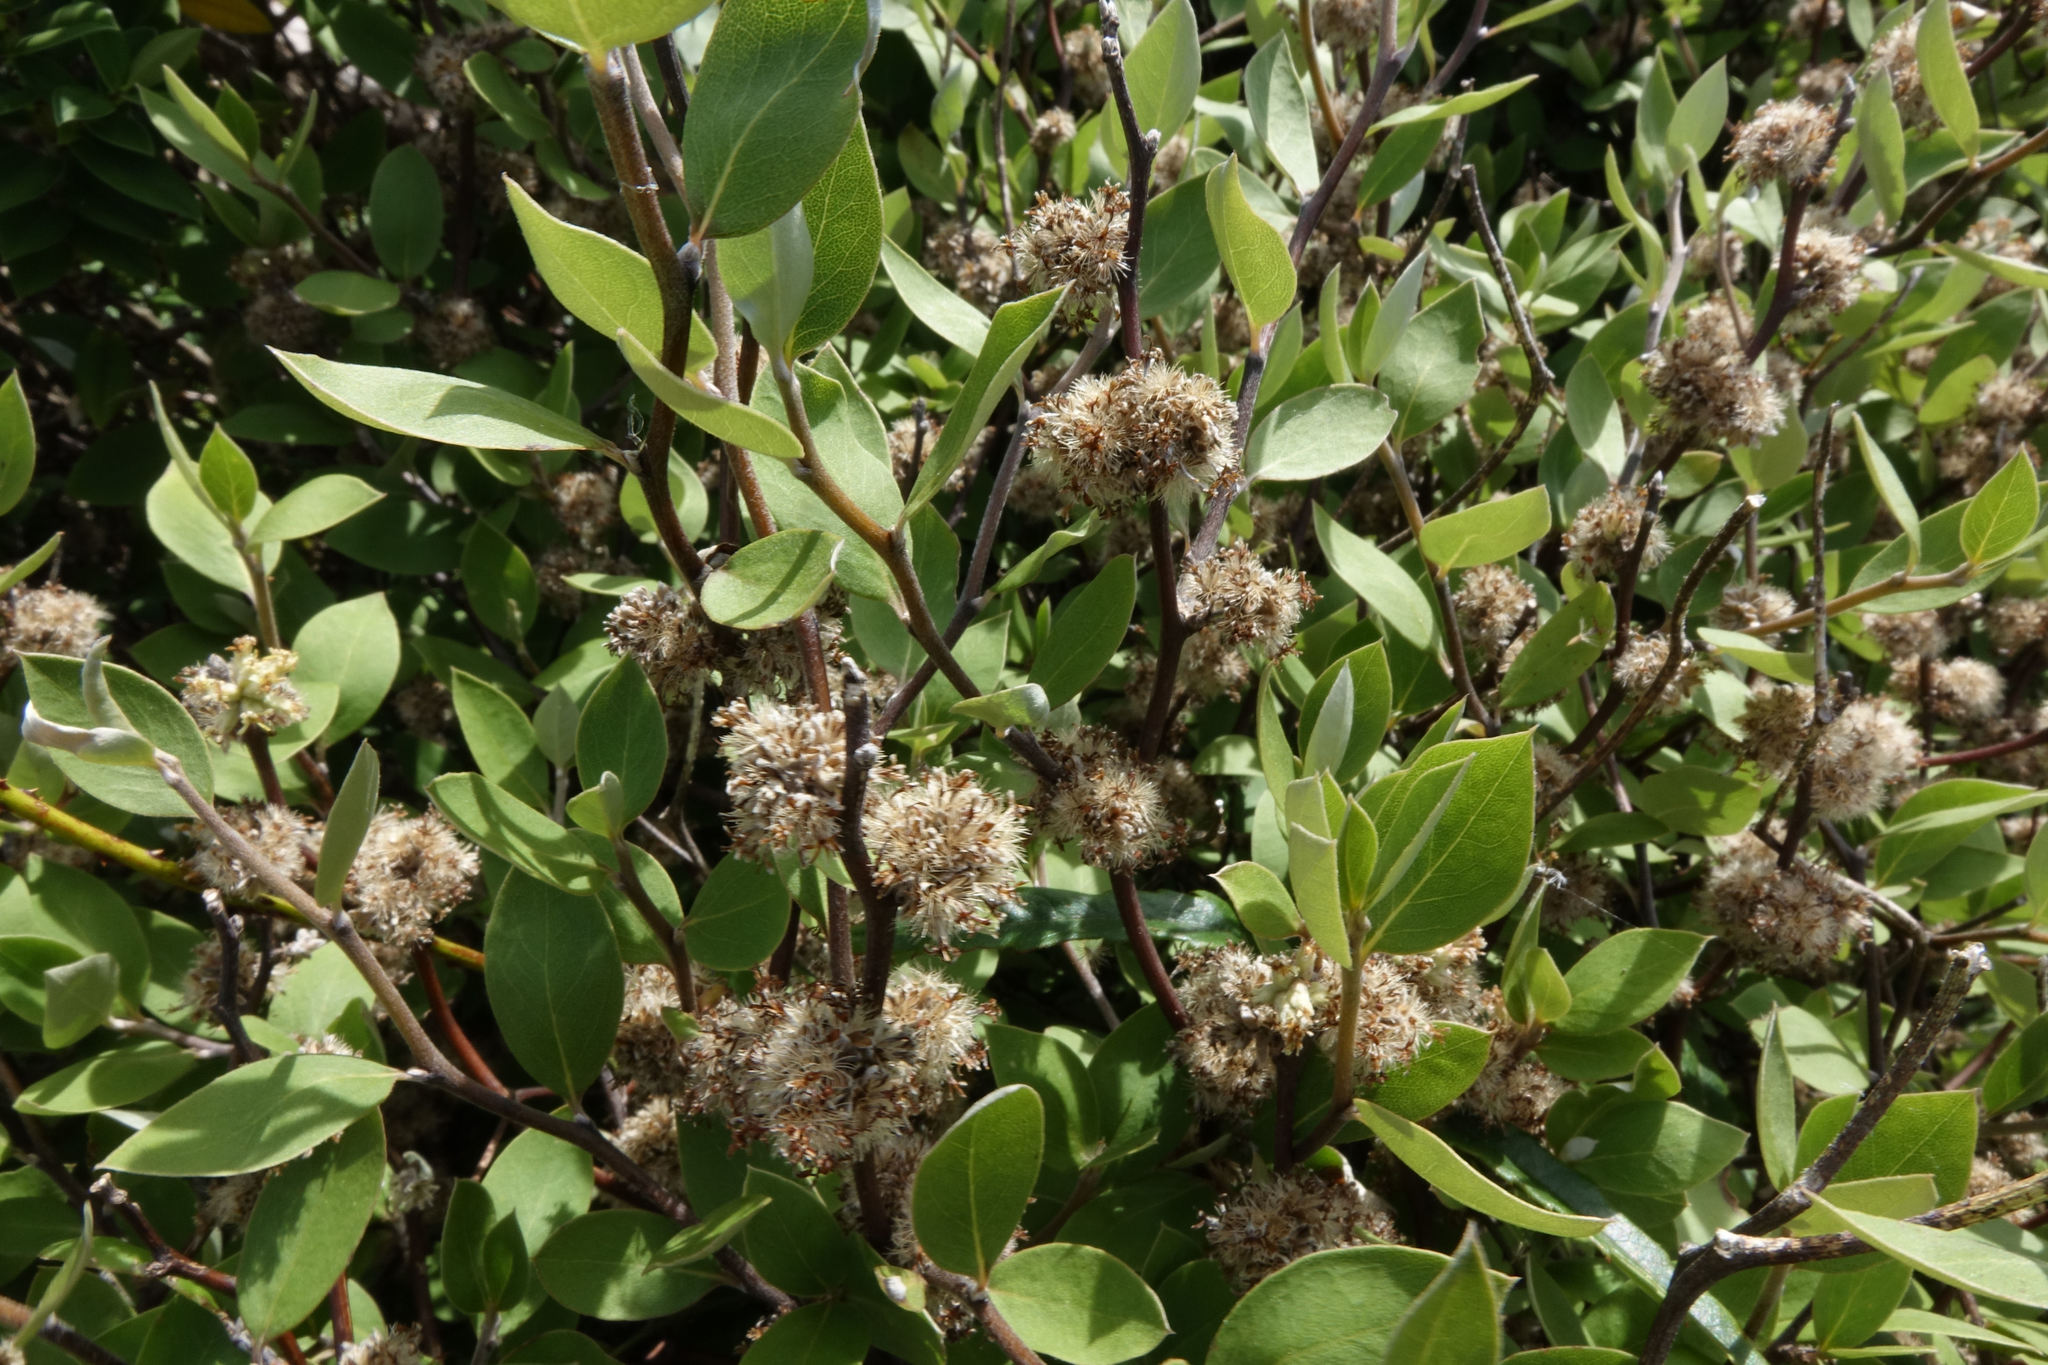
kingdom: Plantae
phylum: Tracheophyta
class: Magnoliopsida
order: Asterales
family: Asteraceae
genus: Olearia
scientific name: Olearia fragrantissima
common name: Fragrant tree daisy
